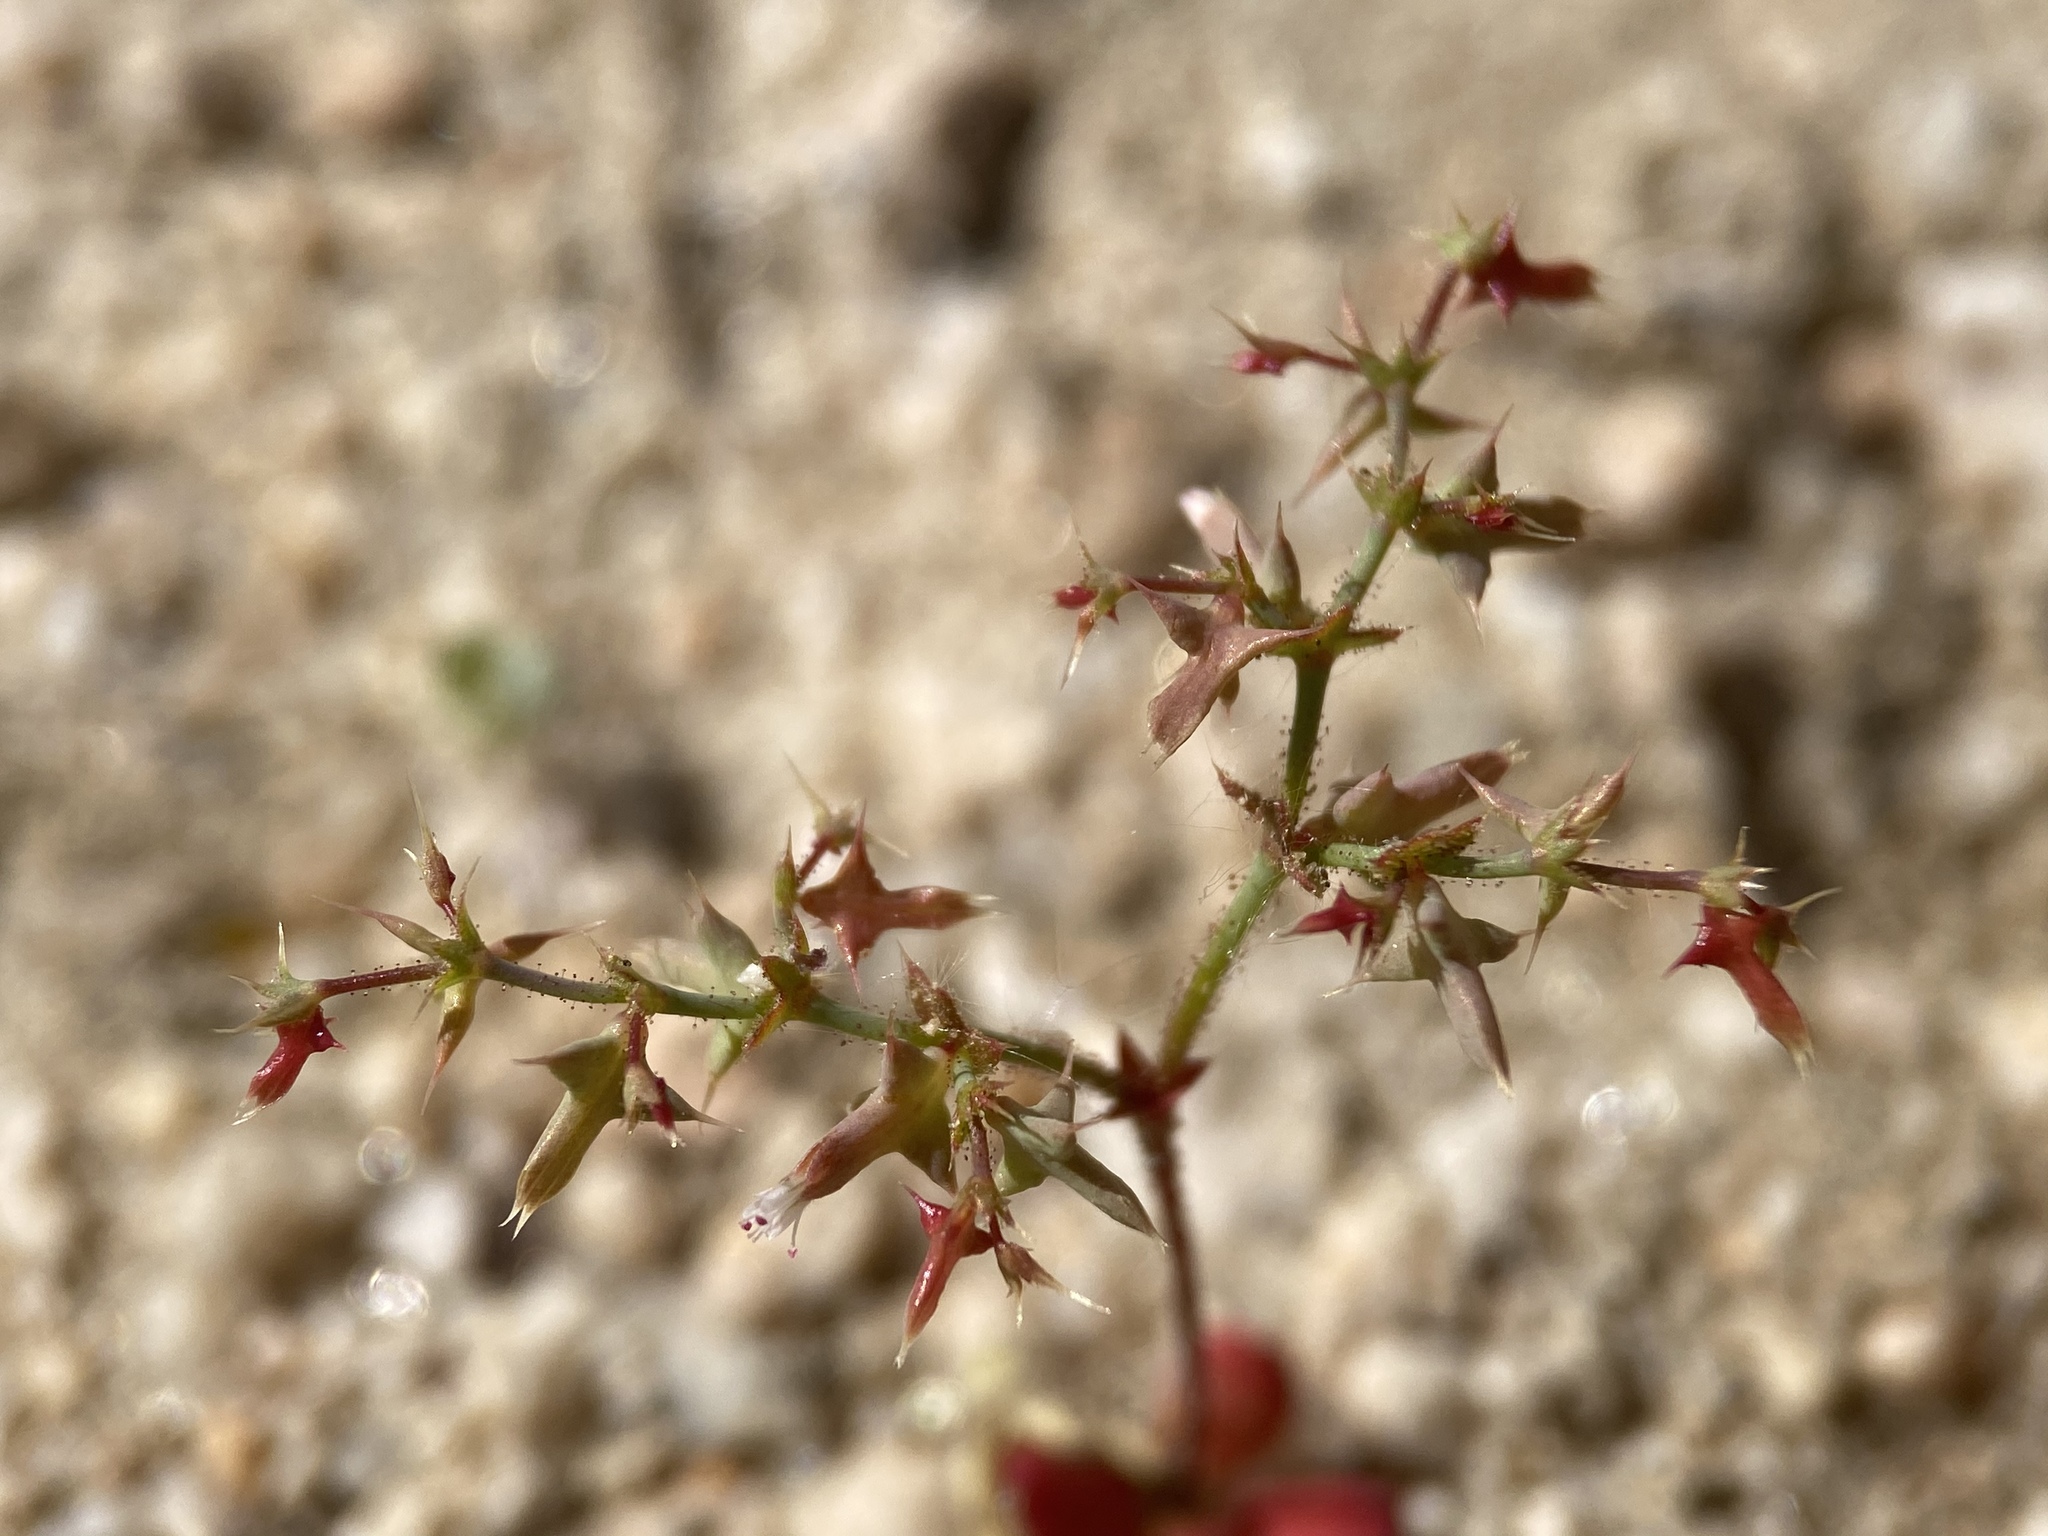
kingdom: Plantae
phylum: Tracheophyta
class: Magnoliopsida
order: Caryophyllales
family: Polygonaceae
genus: Centrostegia
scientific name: Centrostegia thurberi
